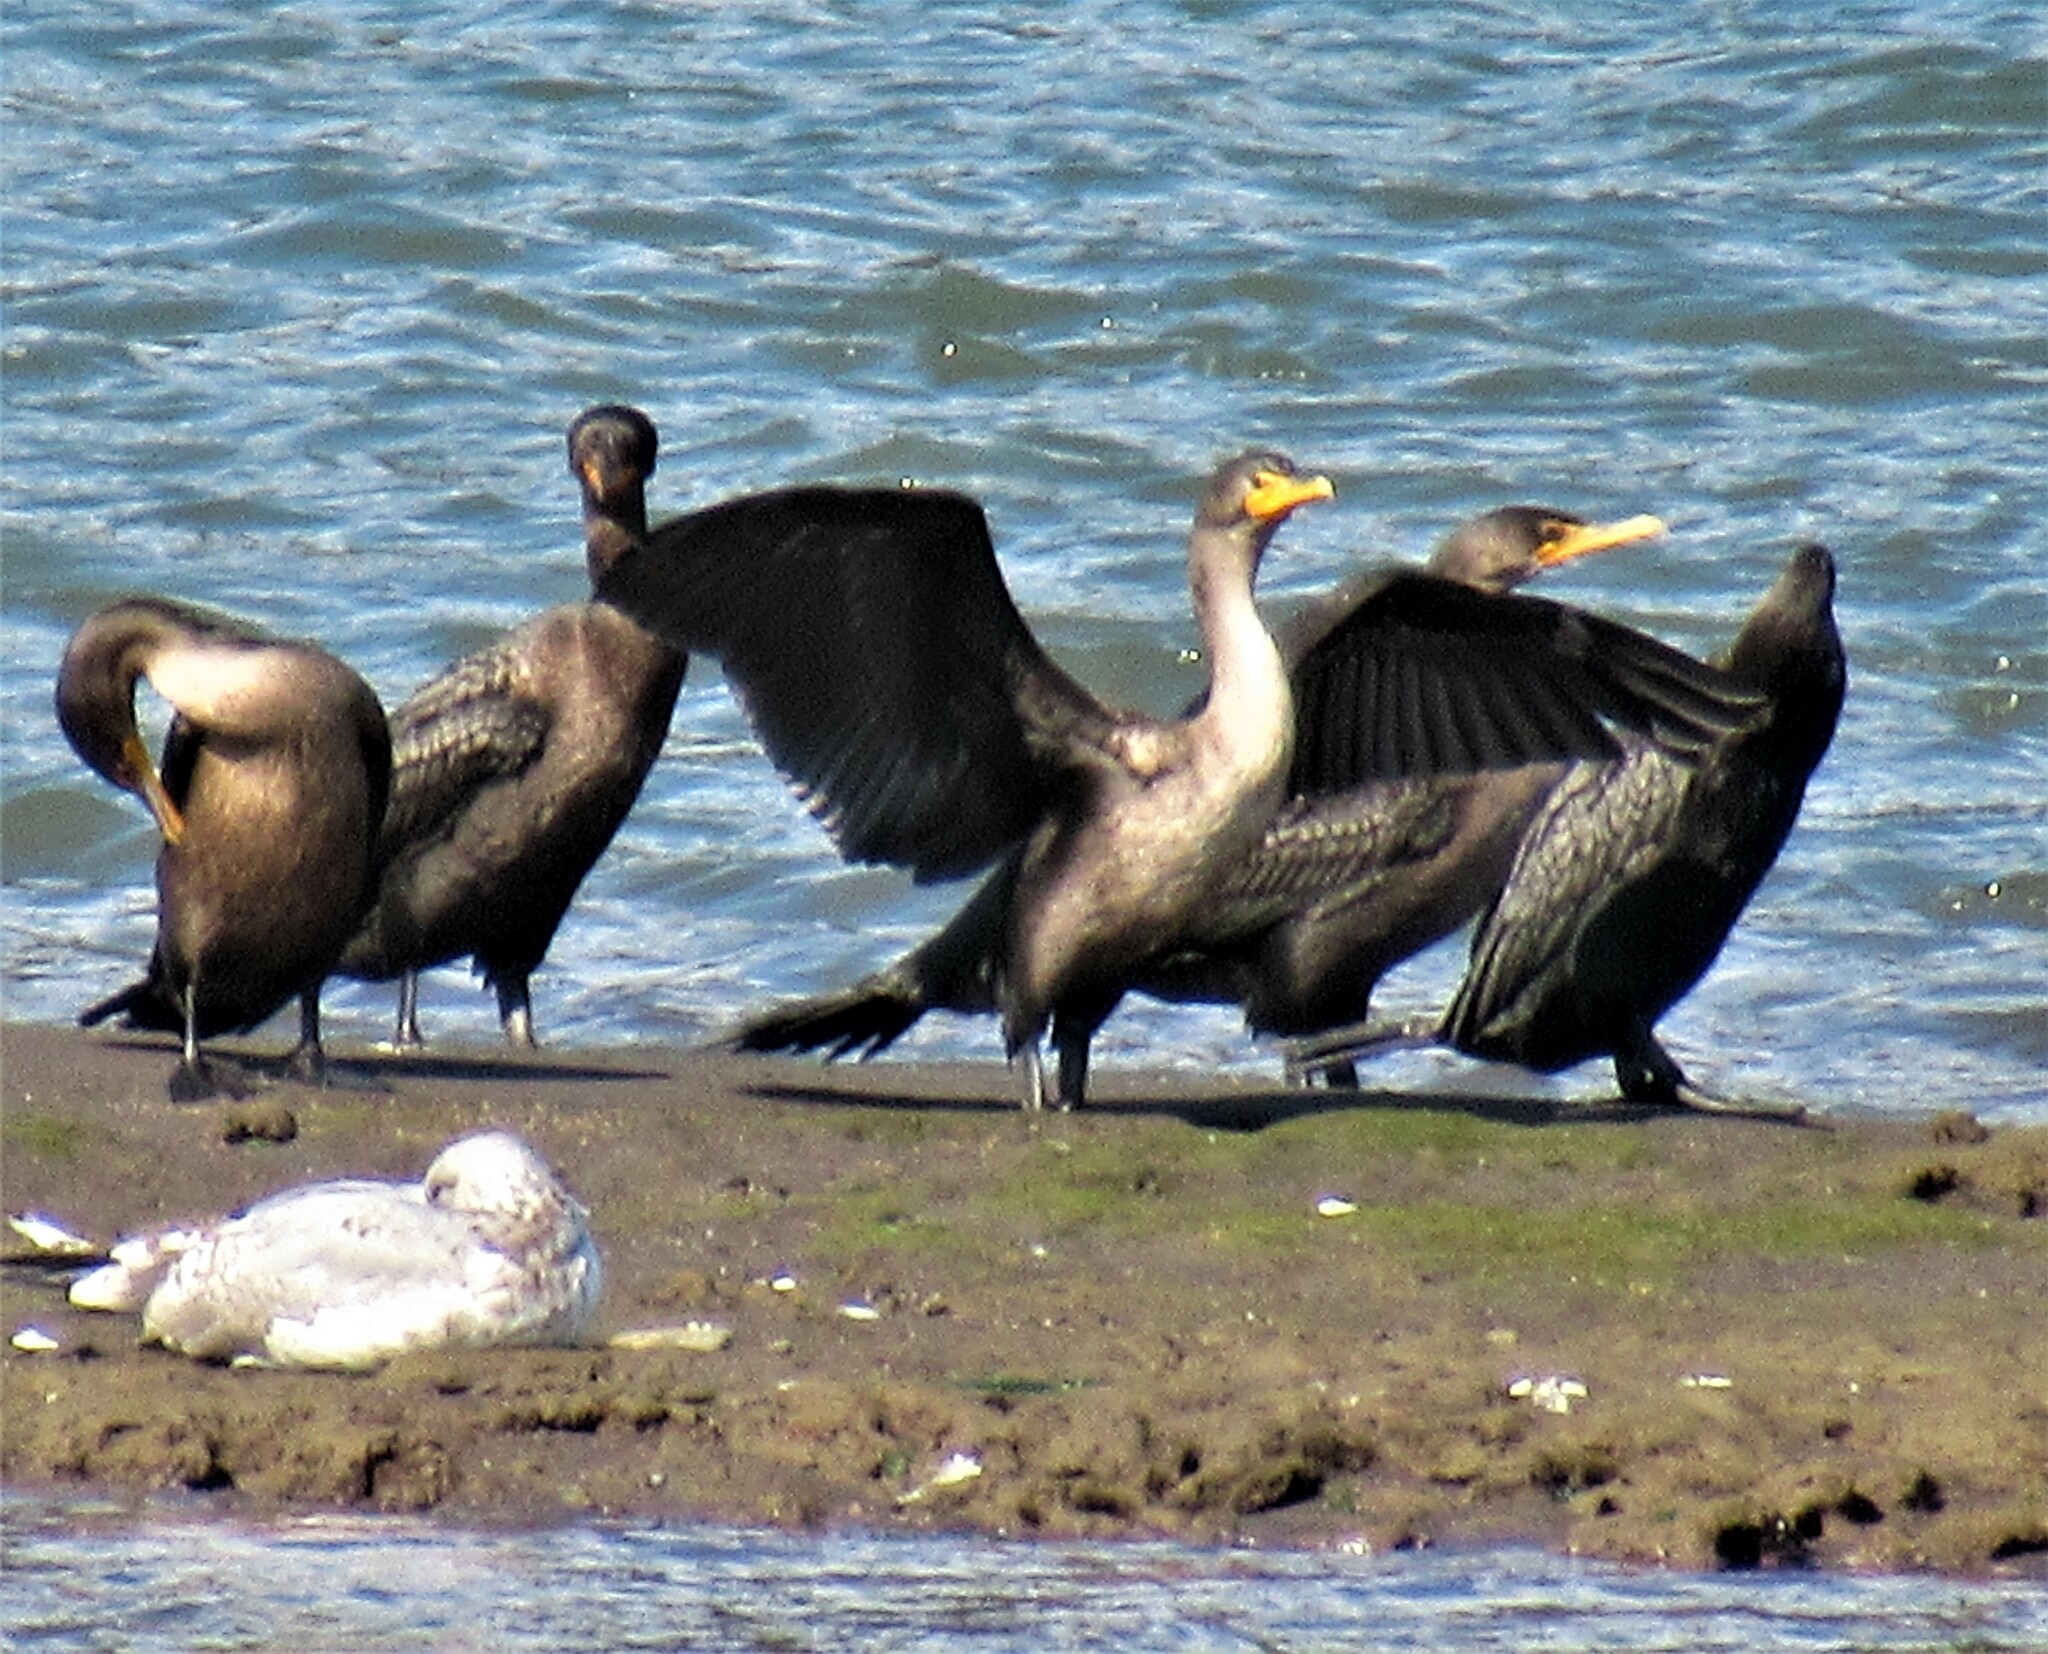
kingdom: Animalia
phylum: Chordata
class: Aves
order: Suliformes
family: Phalacrocoracidae
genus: Phalacrocorax
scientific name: Phalacrocorax auritus
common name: Double-crested cormorant
